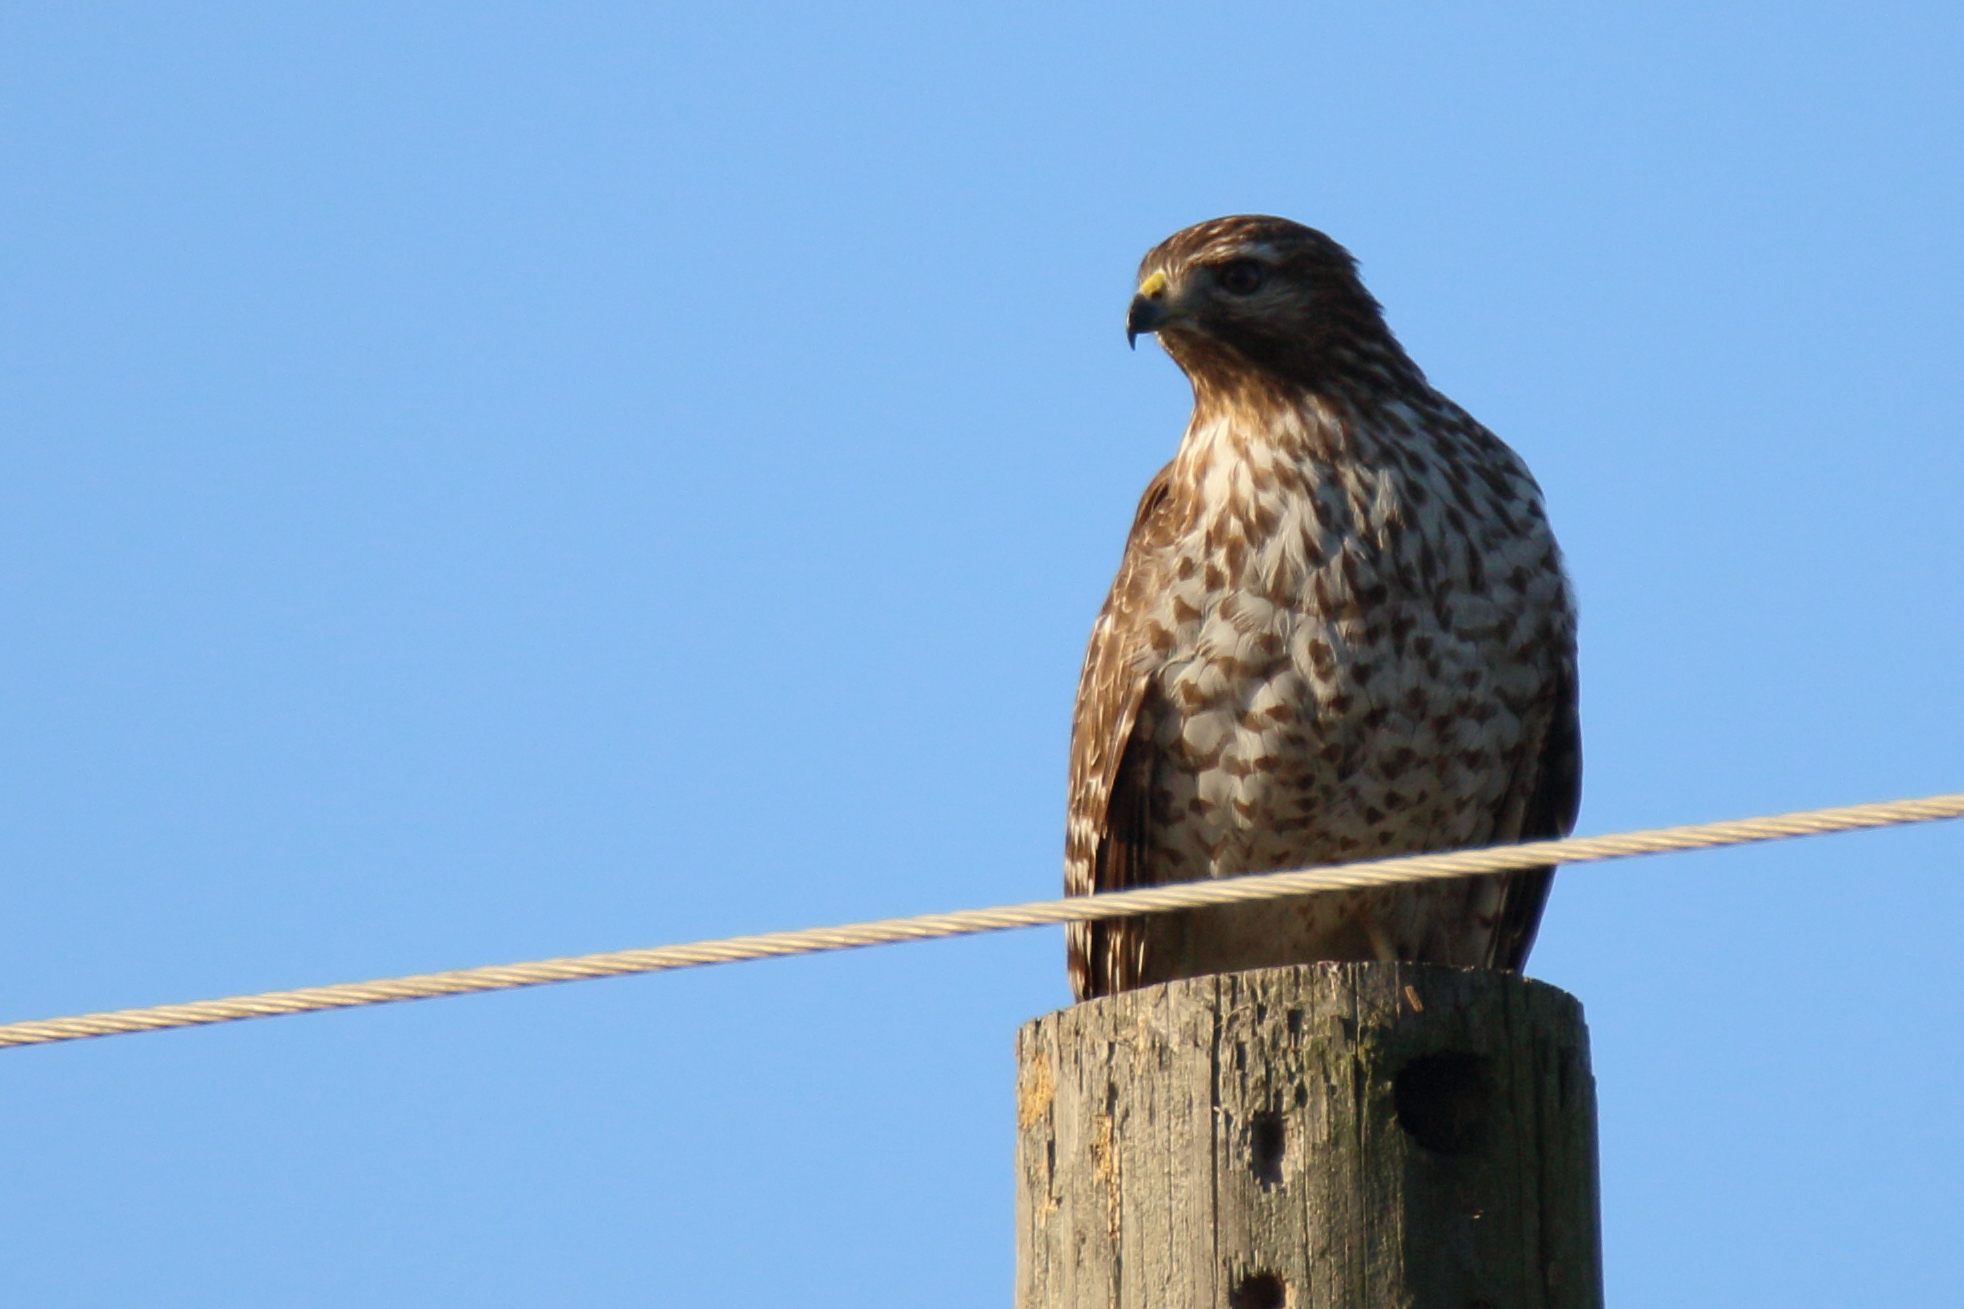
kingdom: Animalia
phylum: Chordata
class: Aves
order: Accipitriformes
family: Accipitridae
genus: Buteo
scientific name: Buteo lineatus
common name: Red-shouldered hawk
